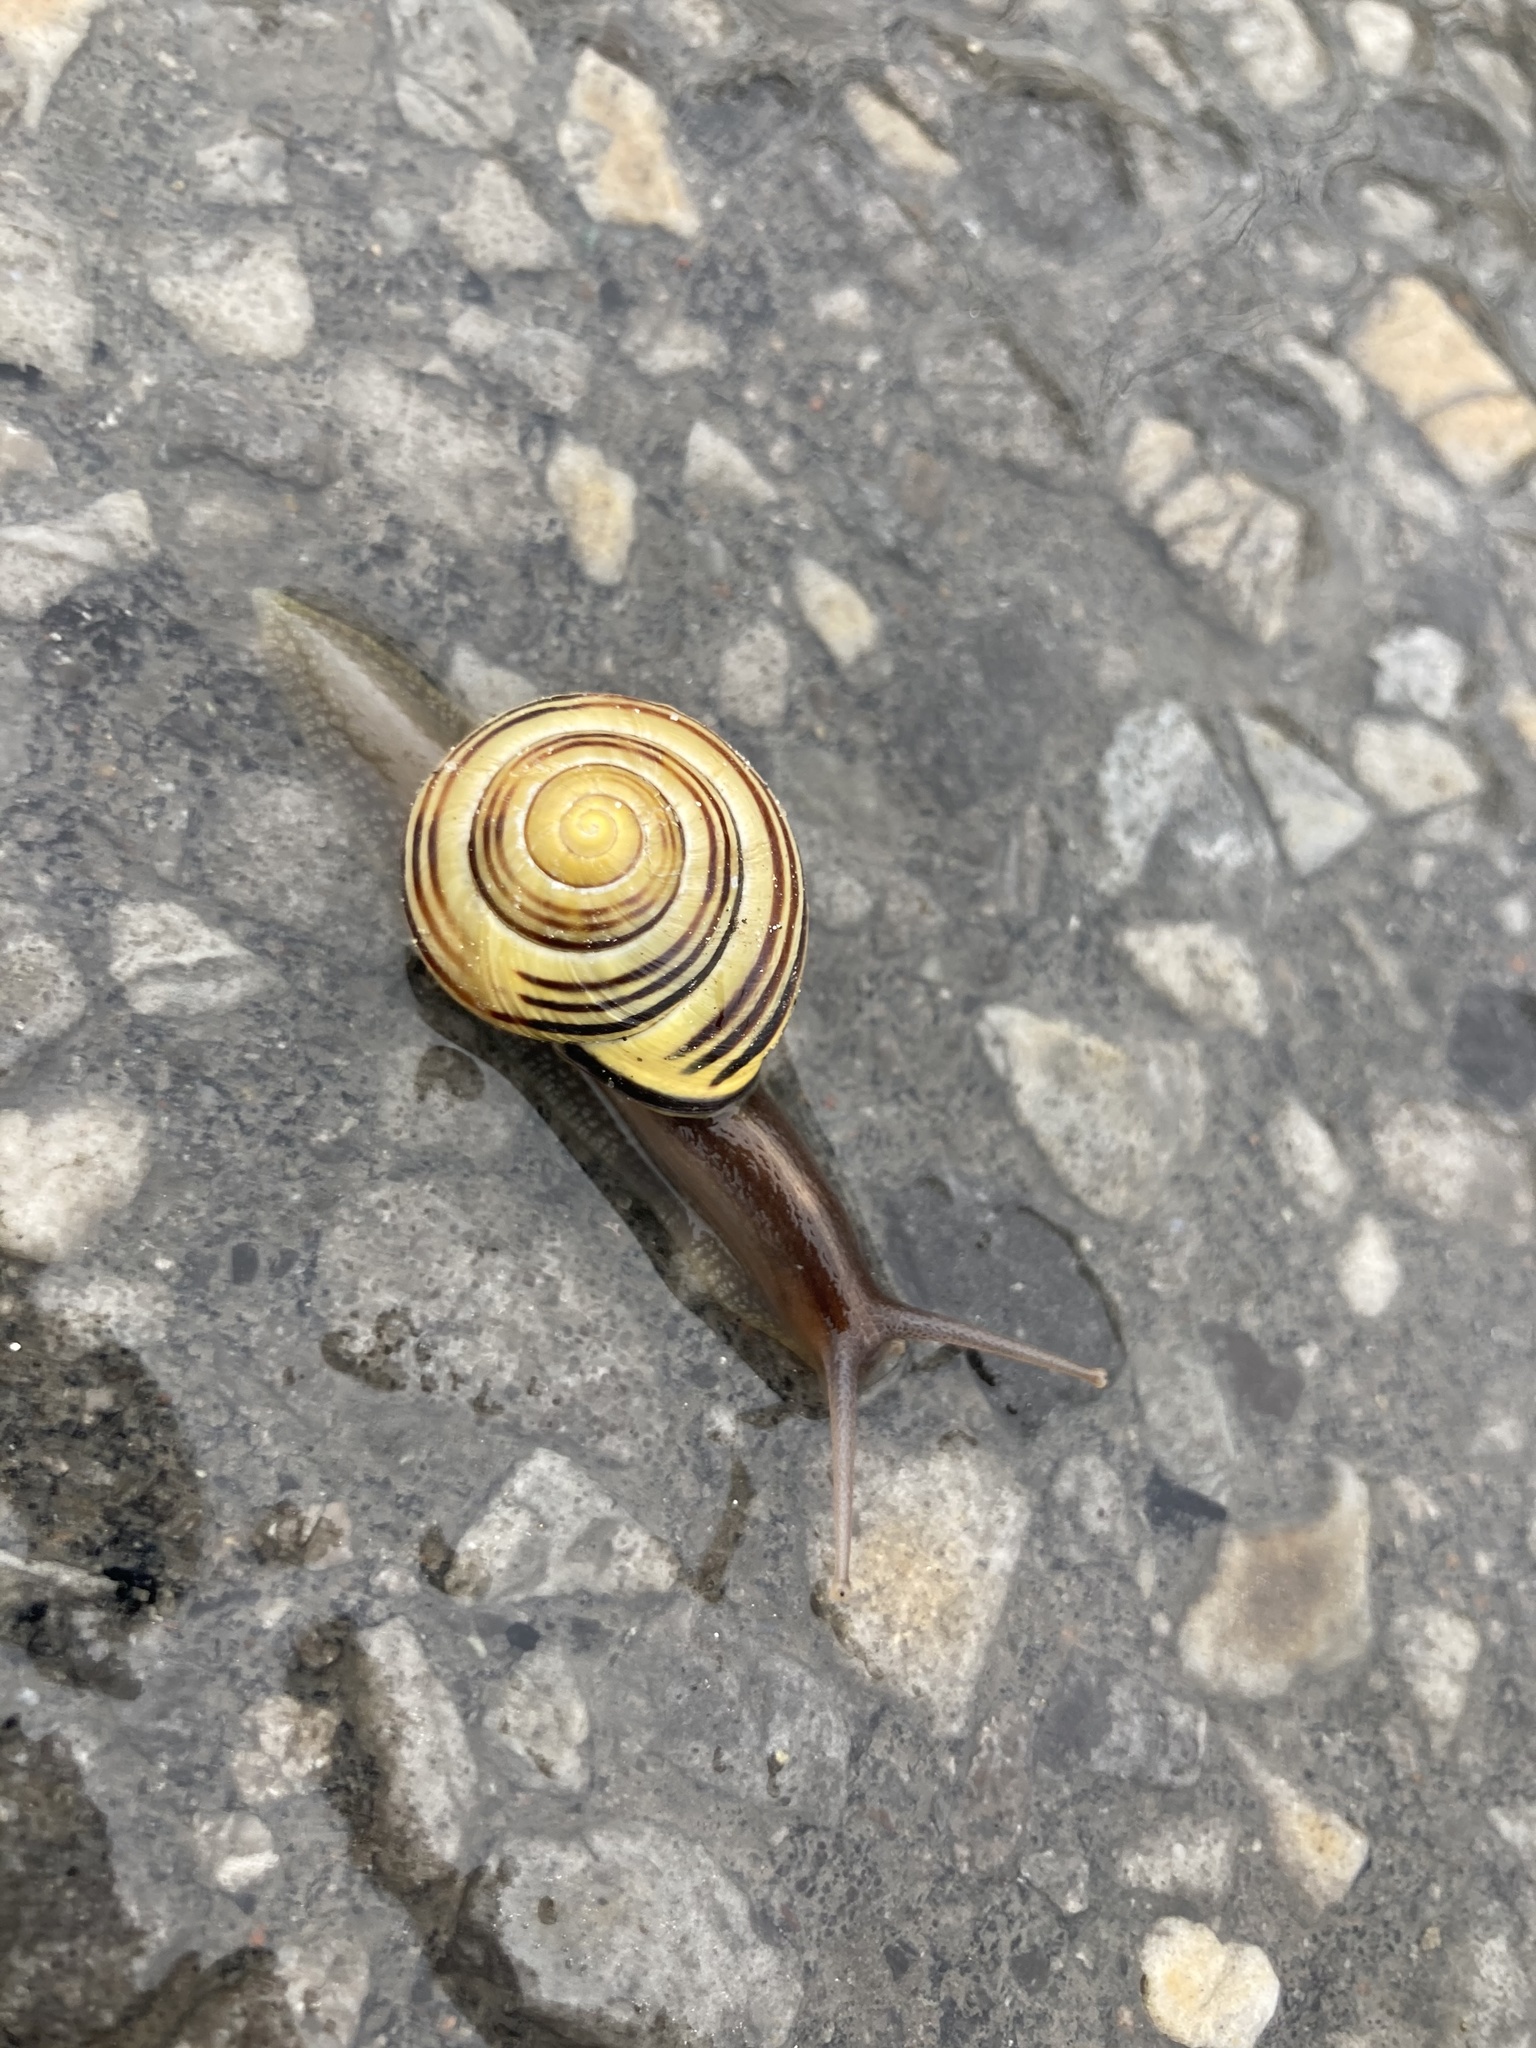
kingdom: Animalia
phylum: Mollusca
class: Gastropoda
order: Stylommatophora
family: Helicidae
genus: Cepaea
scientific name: Cepaea nemoralis
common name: Grovesnail
